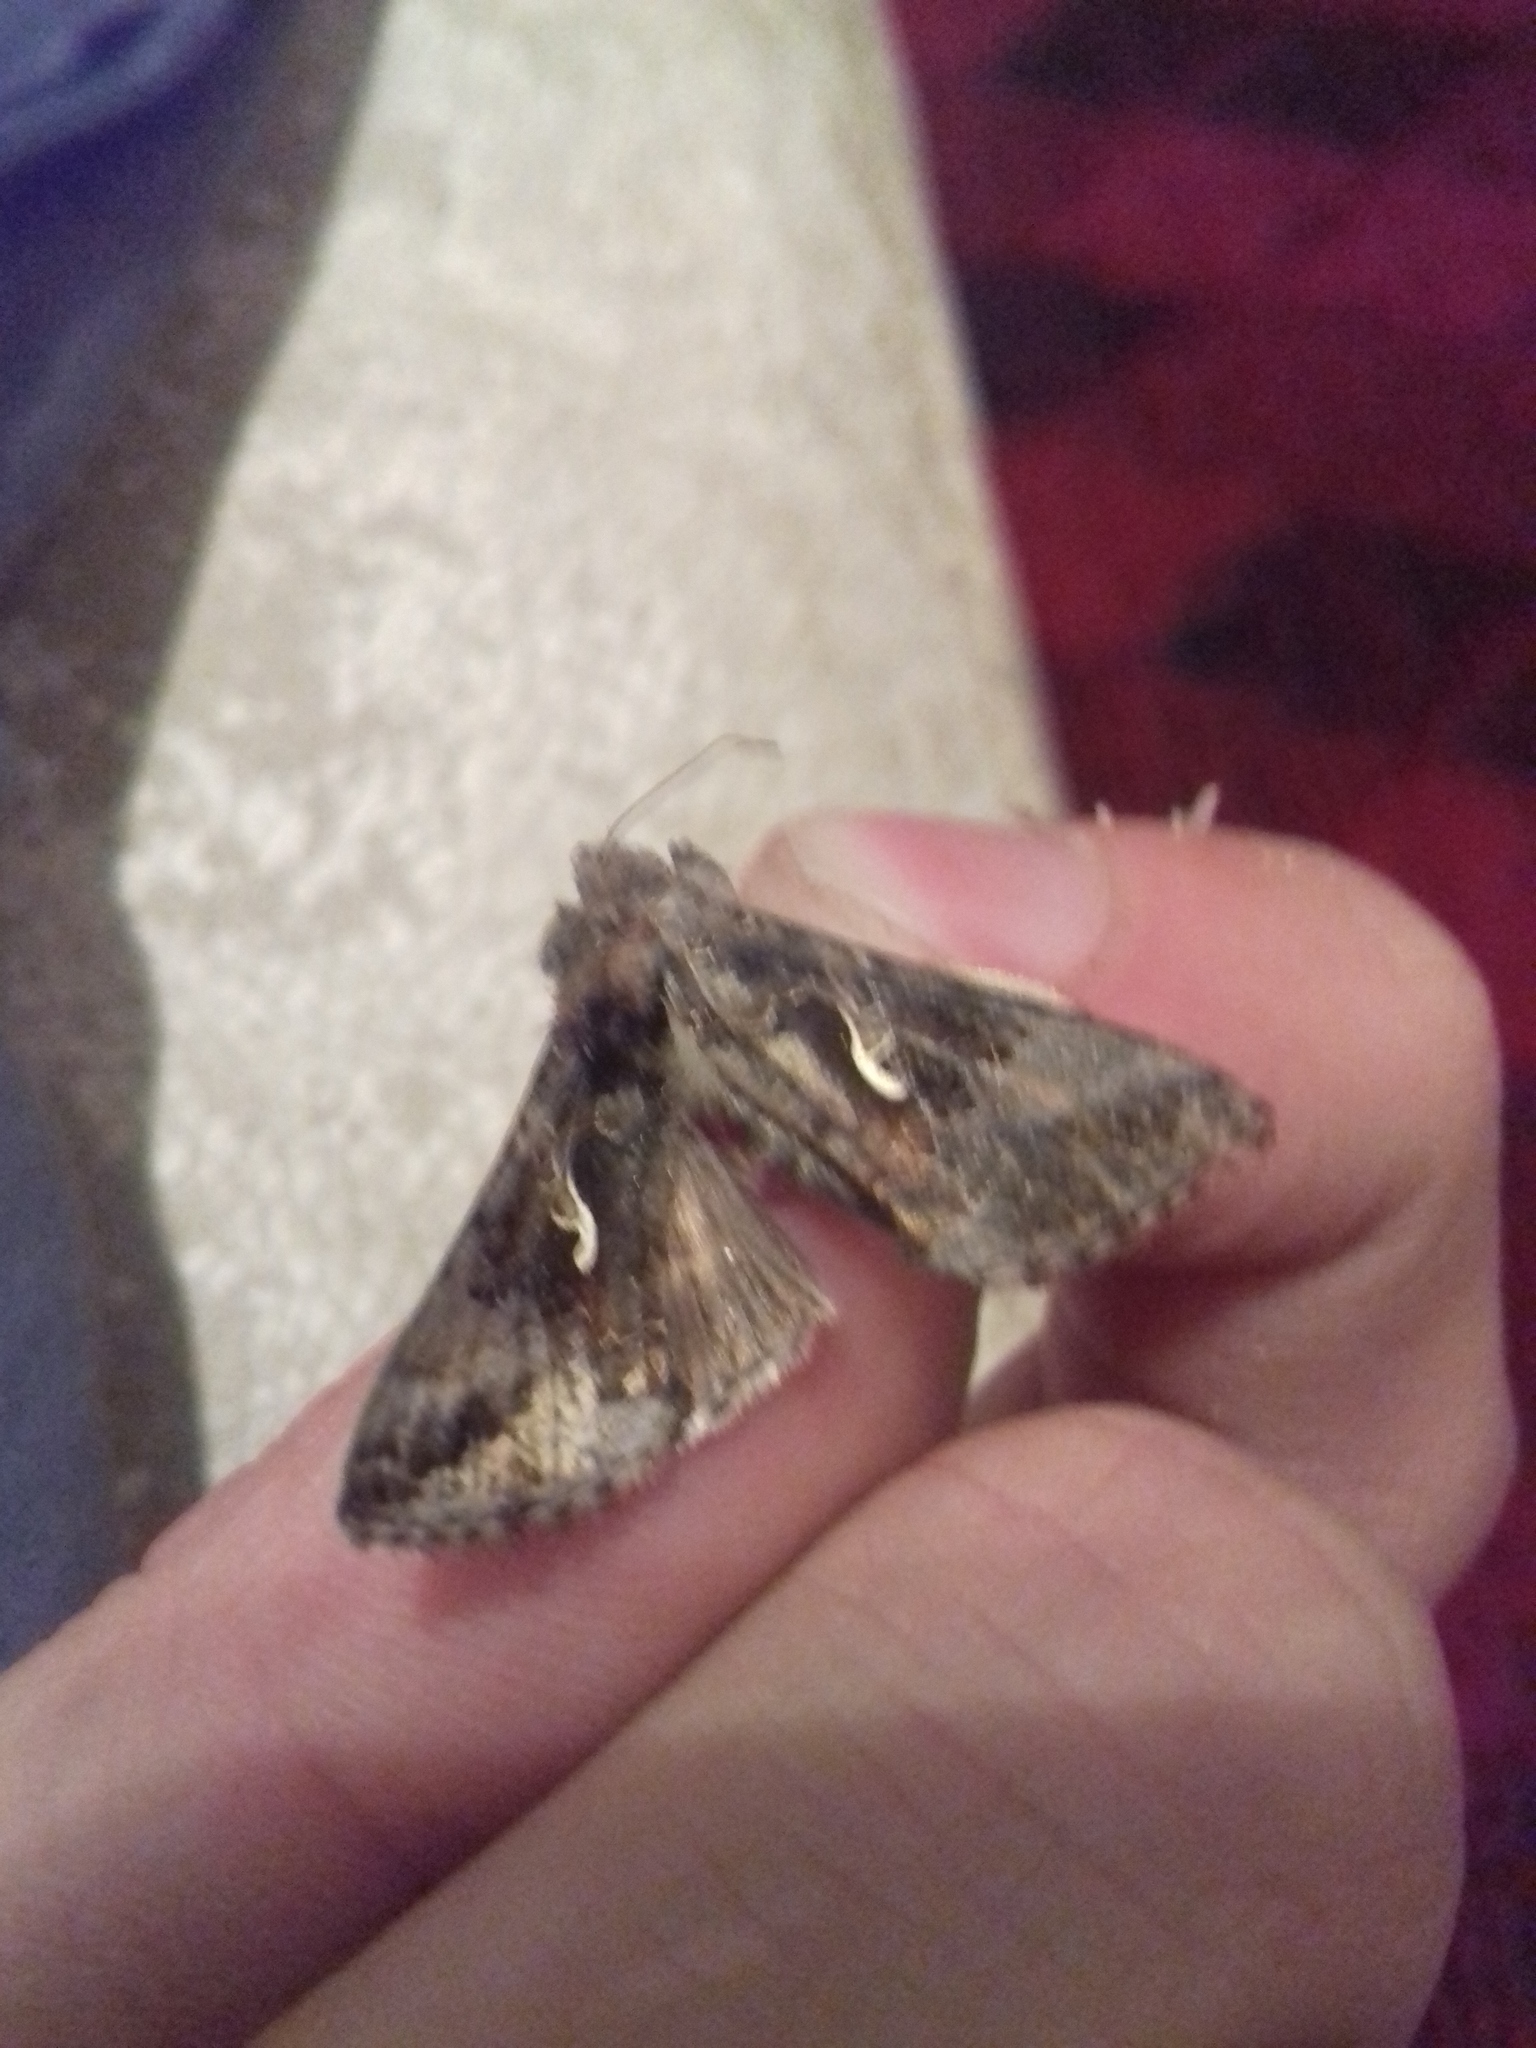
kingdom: Animalia
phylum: Arthropoda
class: Insecta
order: Lepidoptera
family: Noctuidae
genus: Autographa
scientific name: Autographa gamma
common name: Silver y
